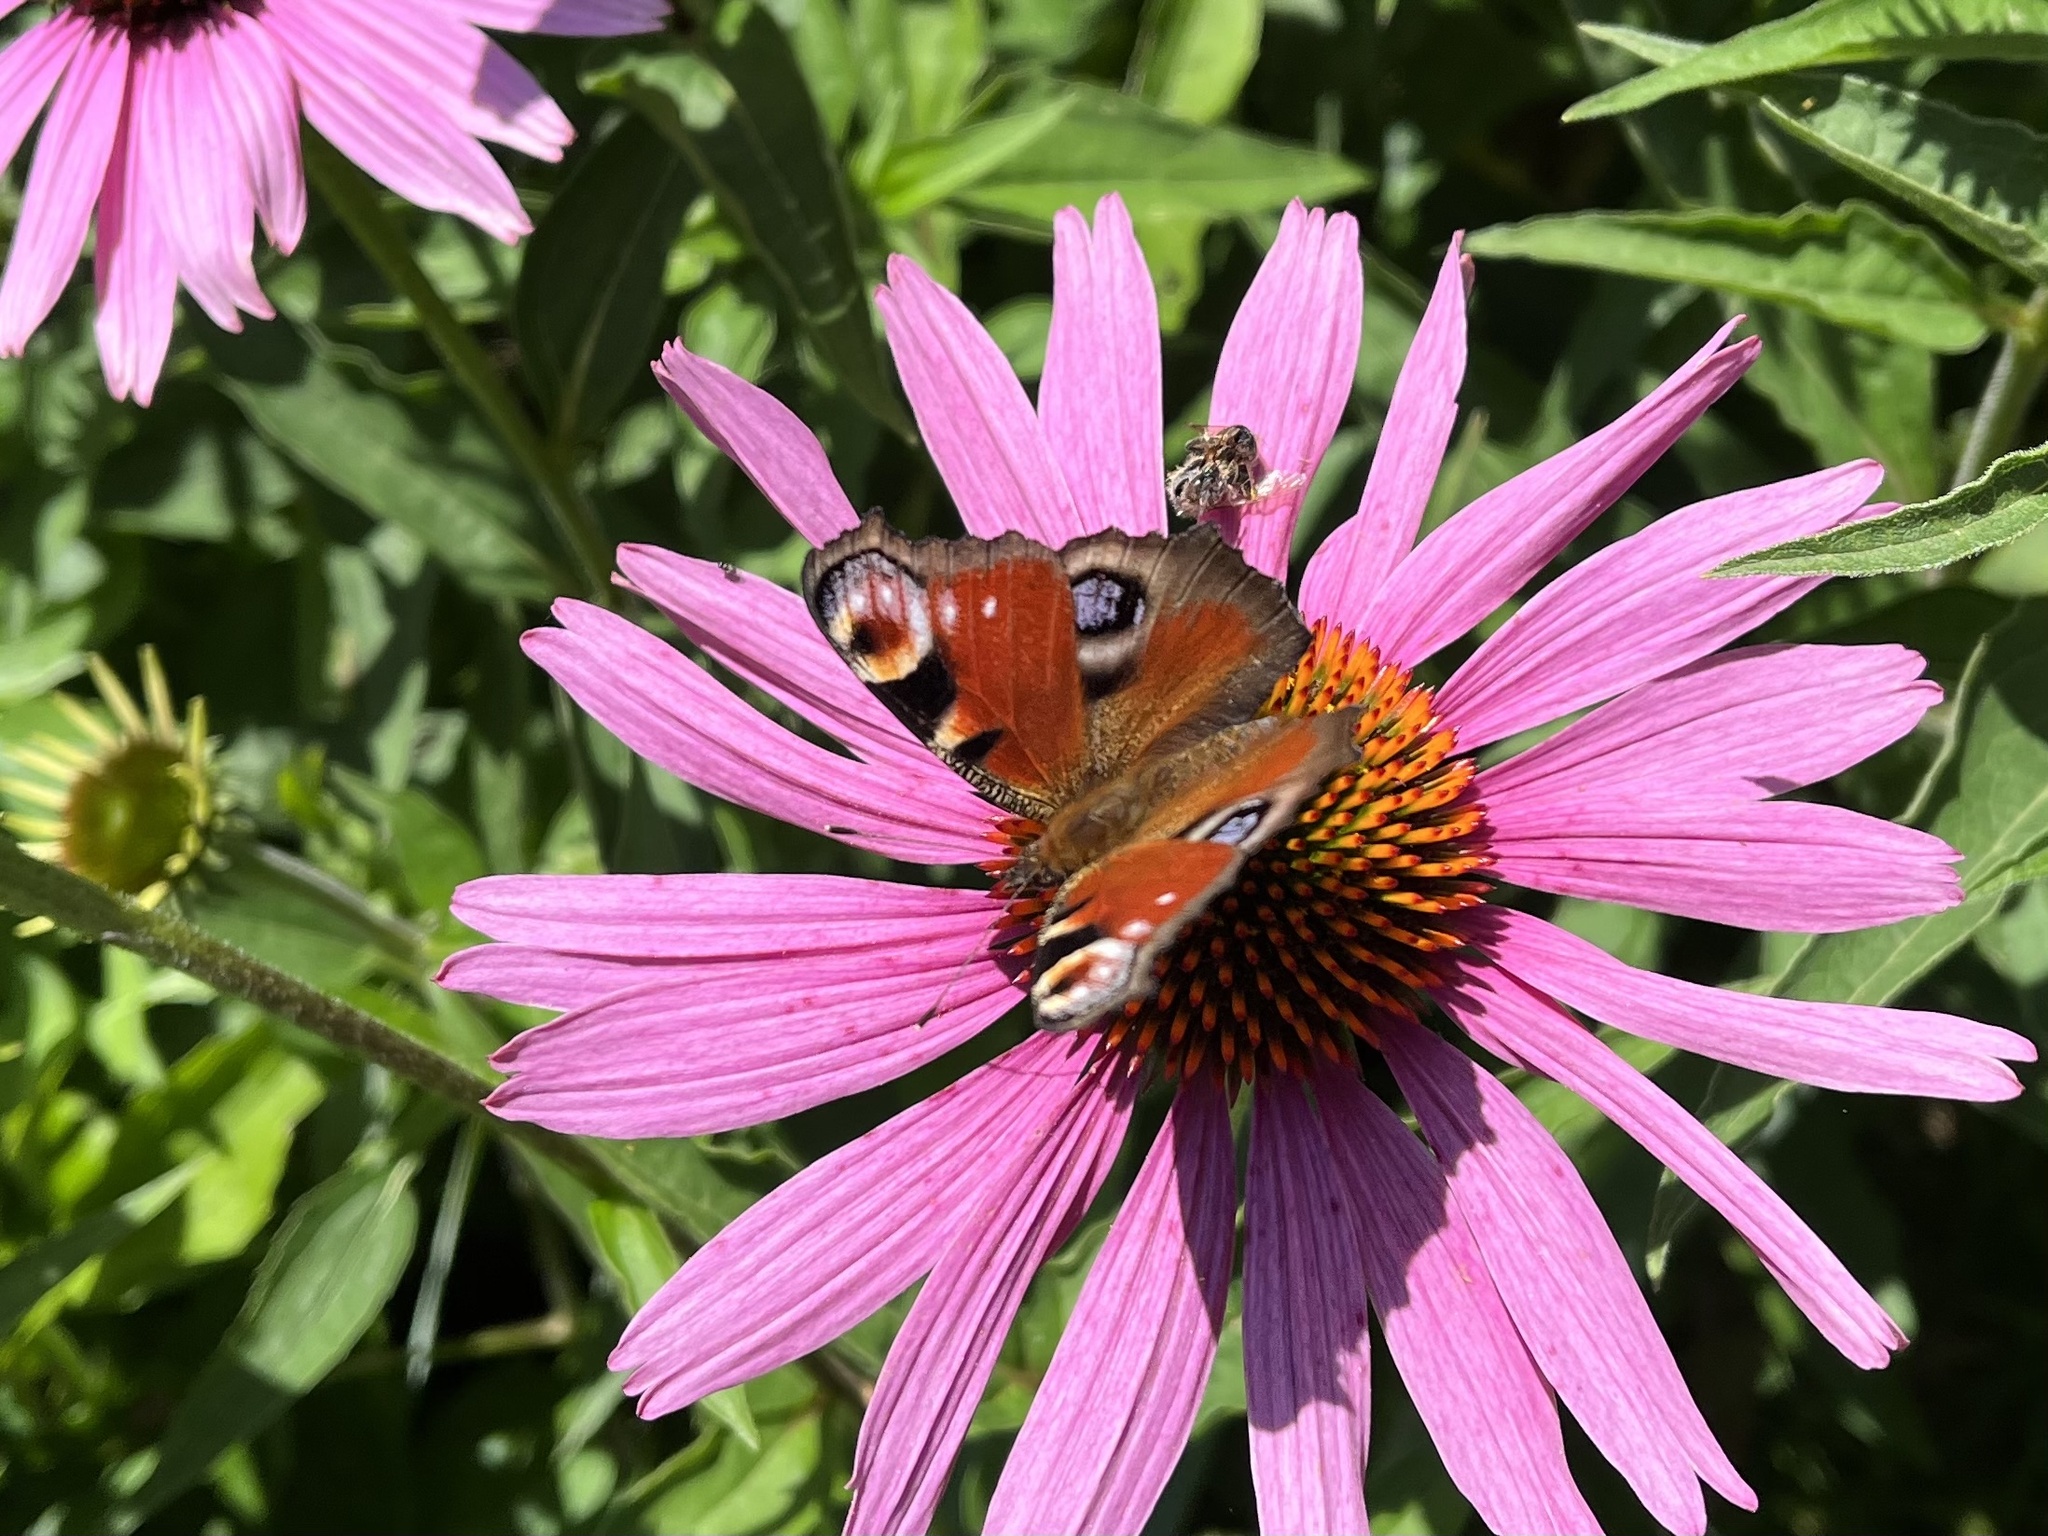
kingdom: Animalia
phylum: Arthropoda
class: Insecta
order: Lepidoptera
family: Nymphalidae
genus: Aglais
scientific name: Aglais io
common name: Peacock
